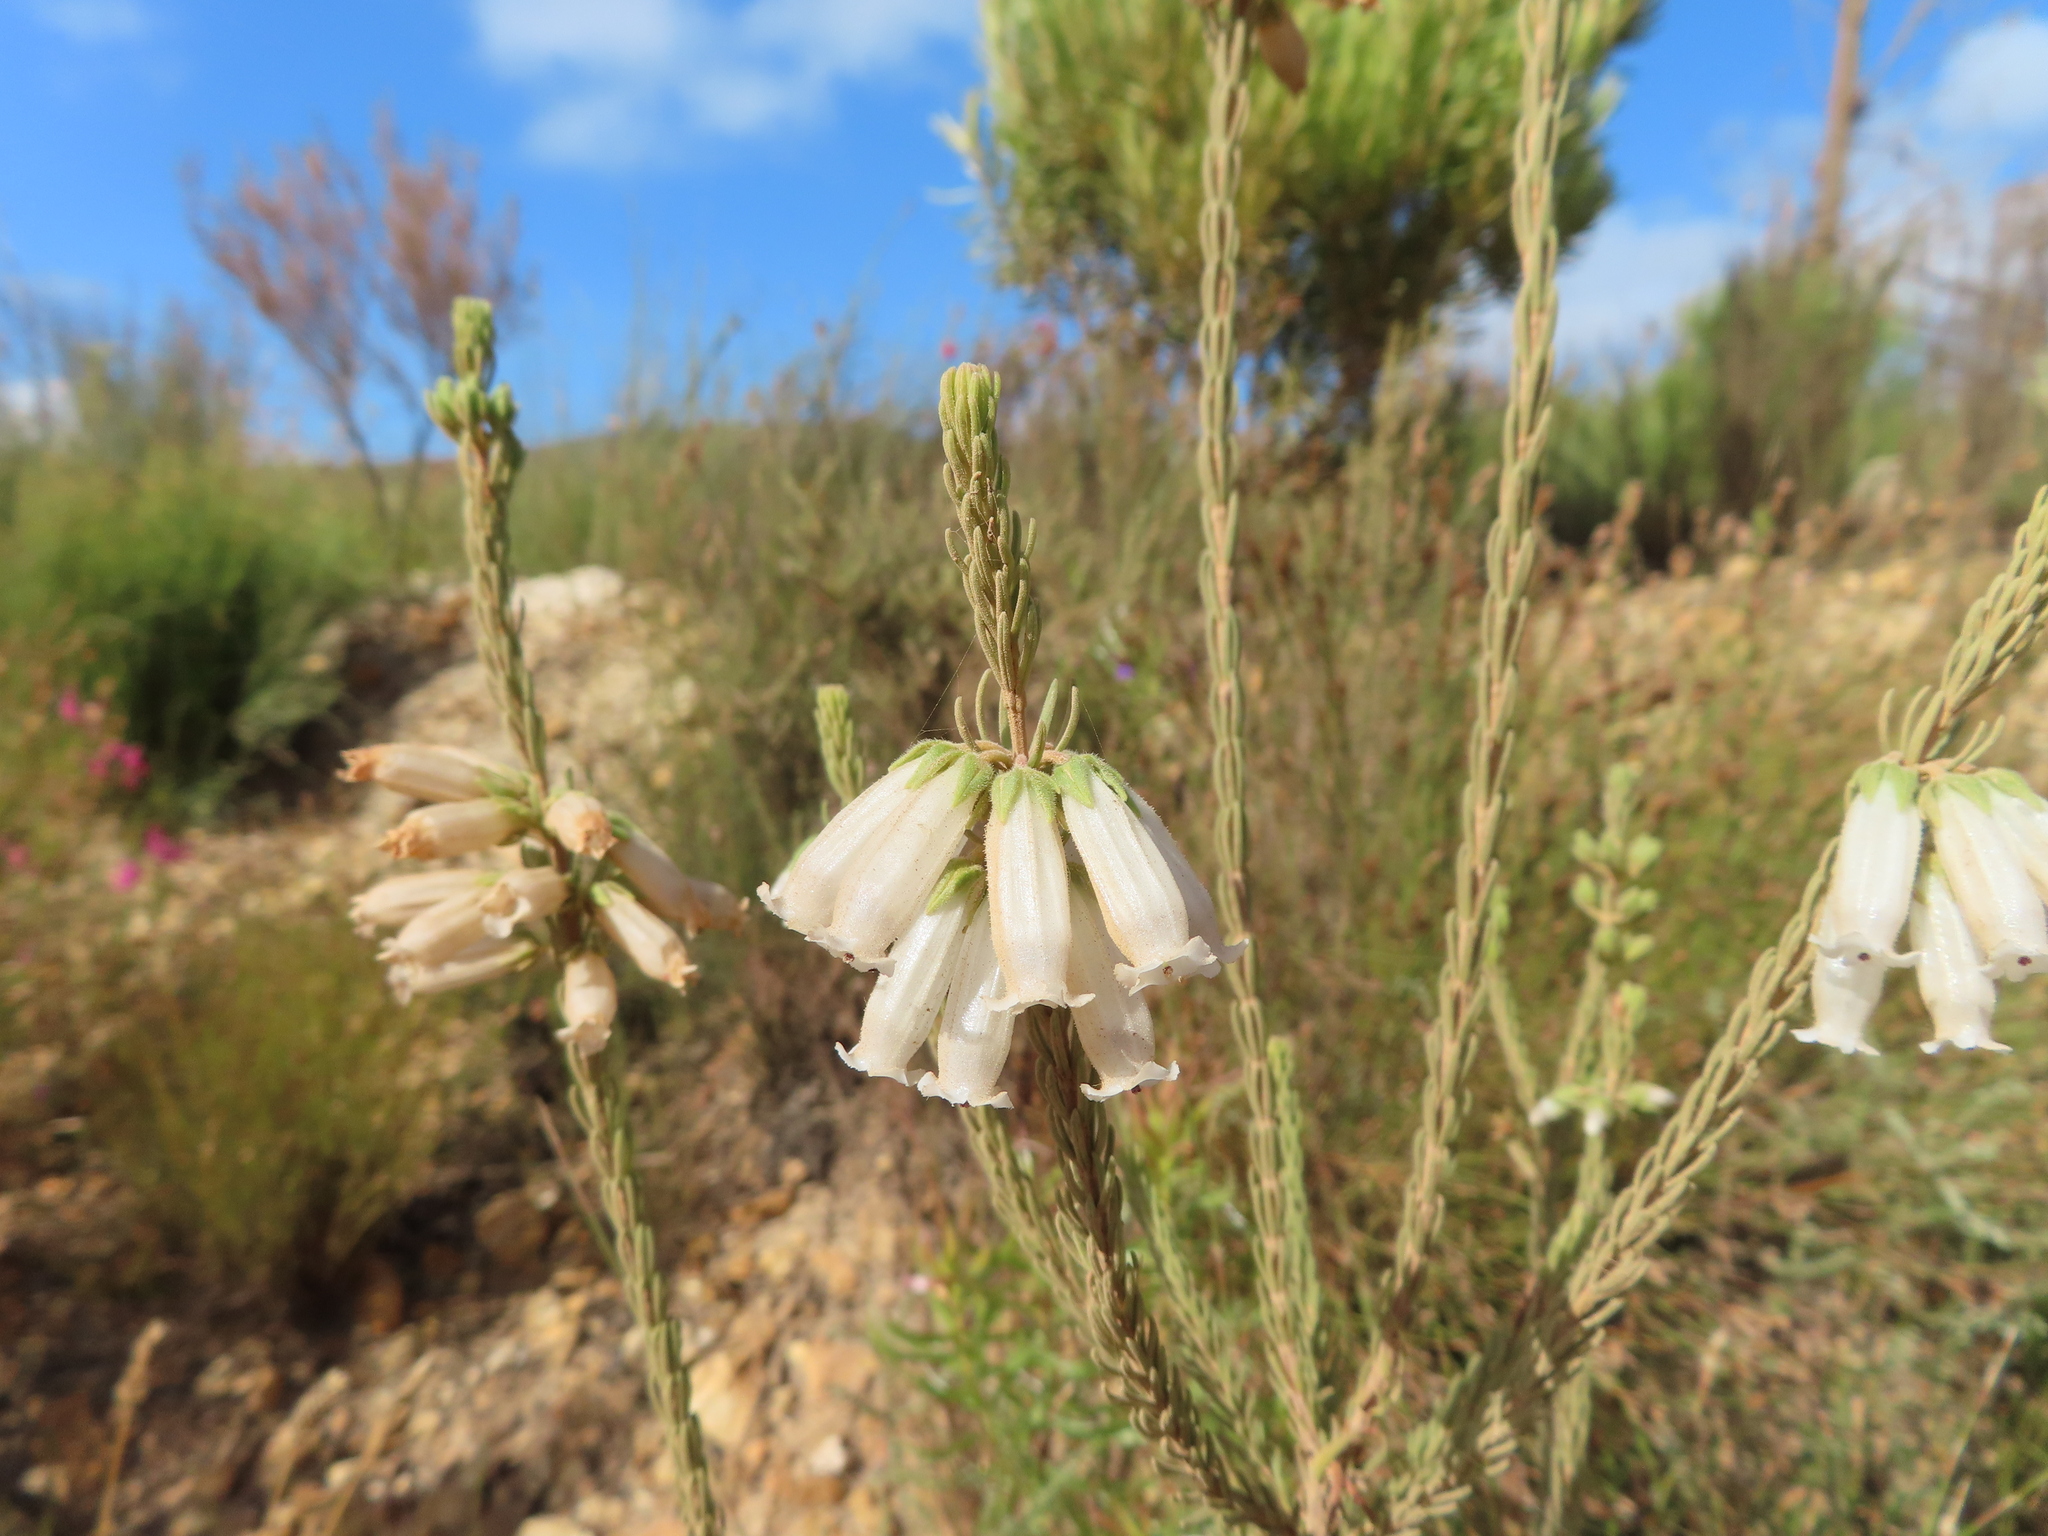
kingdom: Plantae
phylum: Tracheophyta
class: Magnoliopsida
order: Ericales
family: Ericaceae
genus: Erica
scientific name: Erica viscaria
